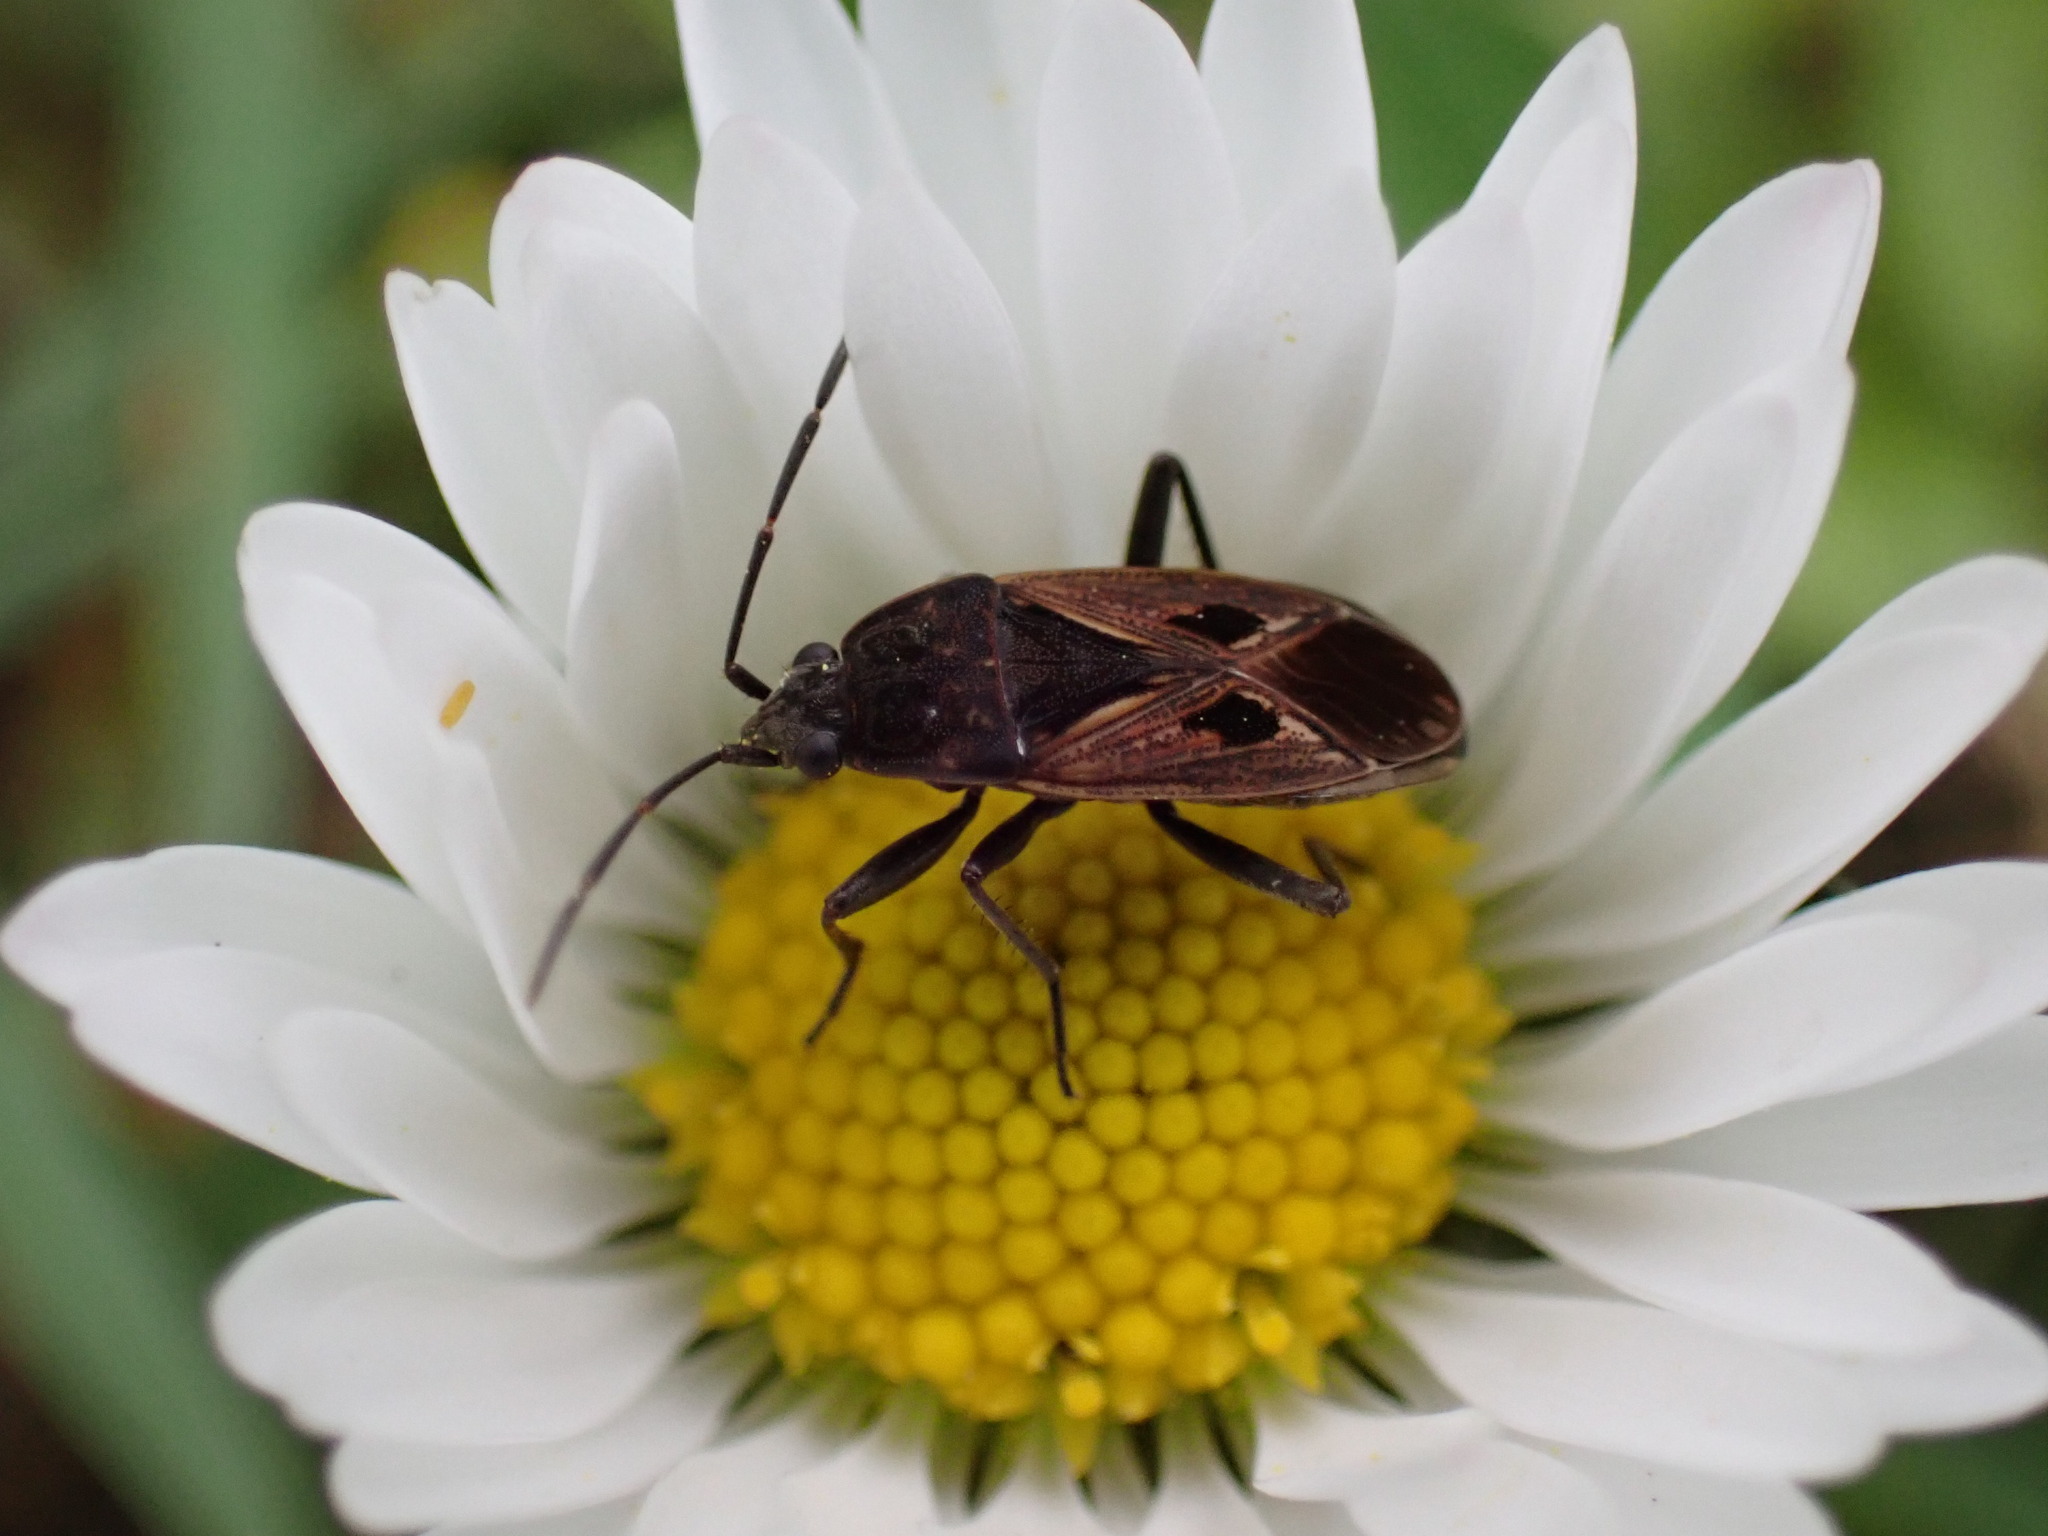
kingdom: Animalia
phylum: Arthropoda
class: Insecta
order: Hemiptera
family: Rhyparochromidae
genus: Rhyparochromus
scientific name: Rhyparochromus pini
